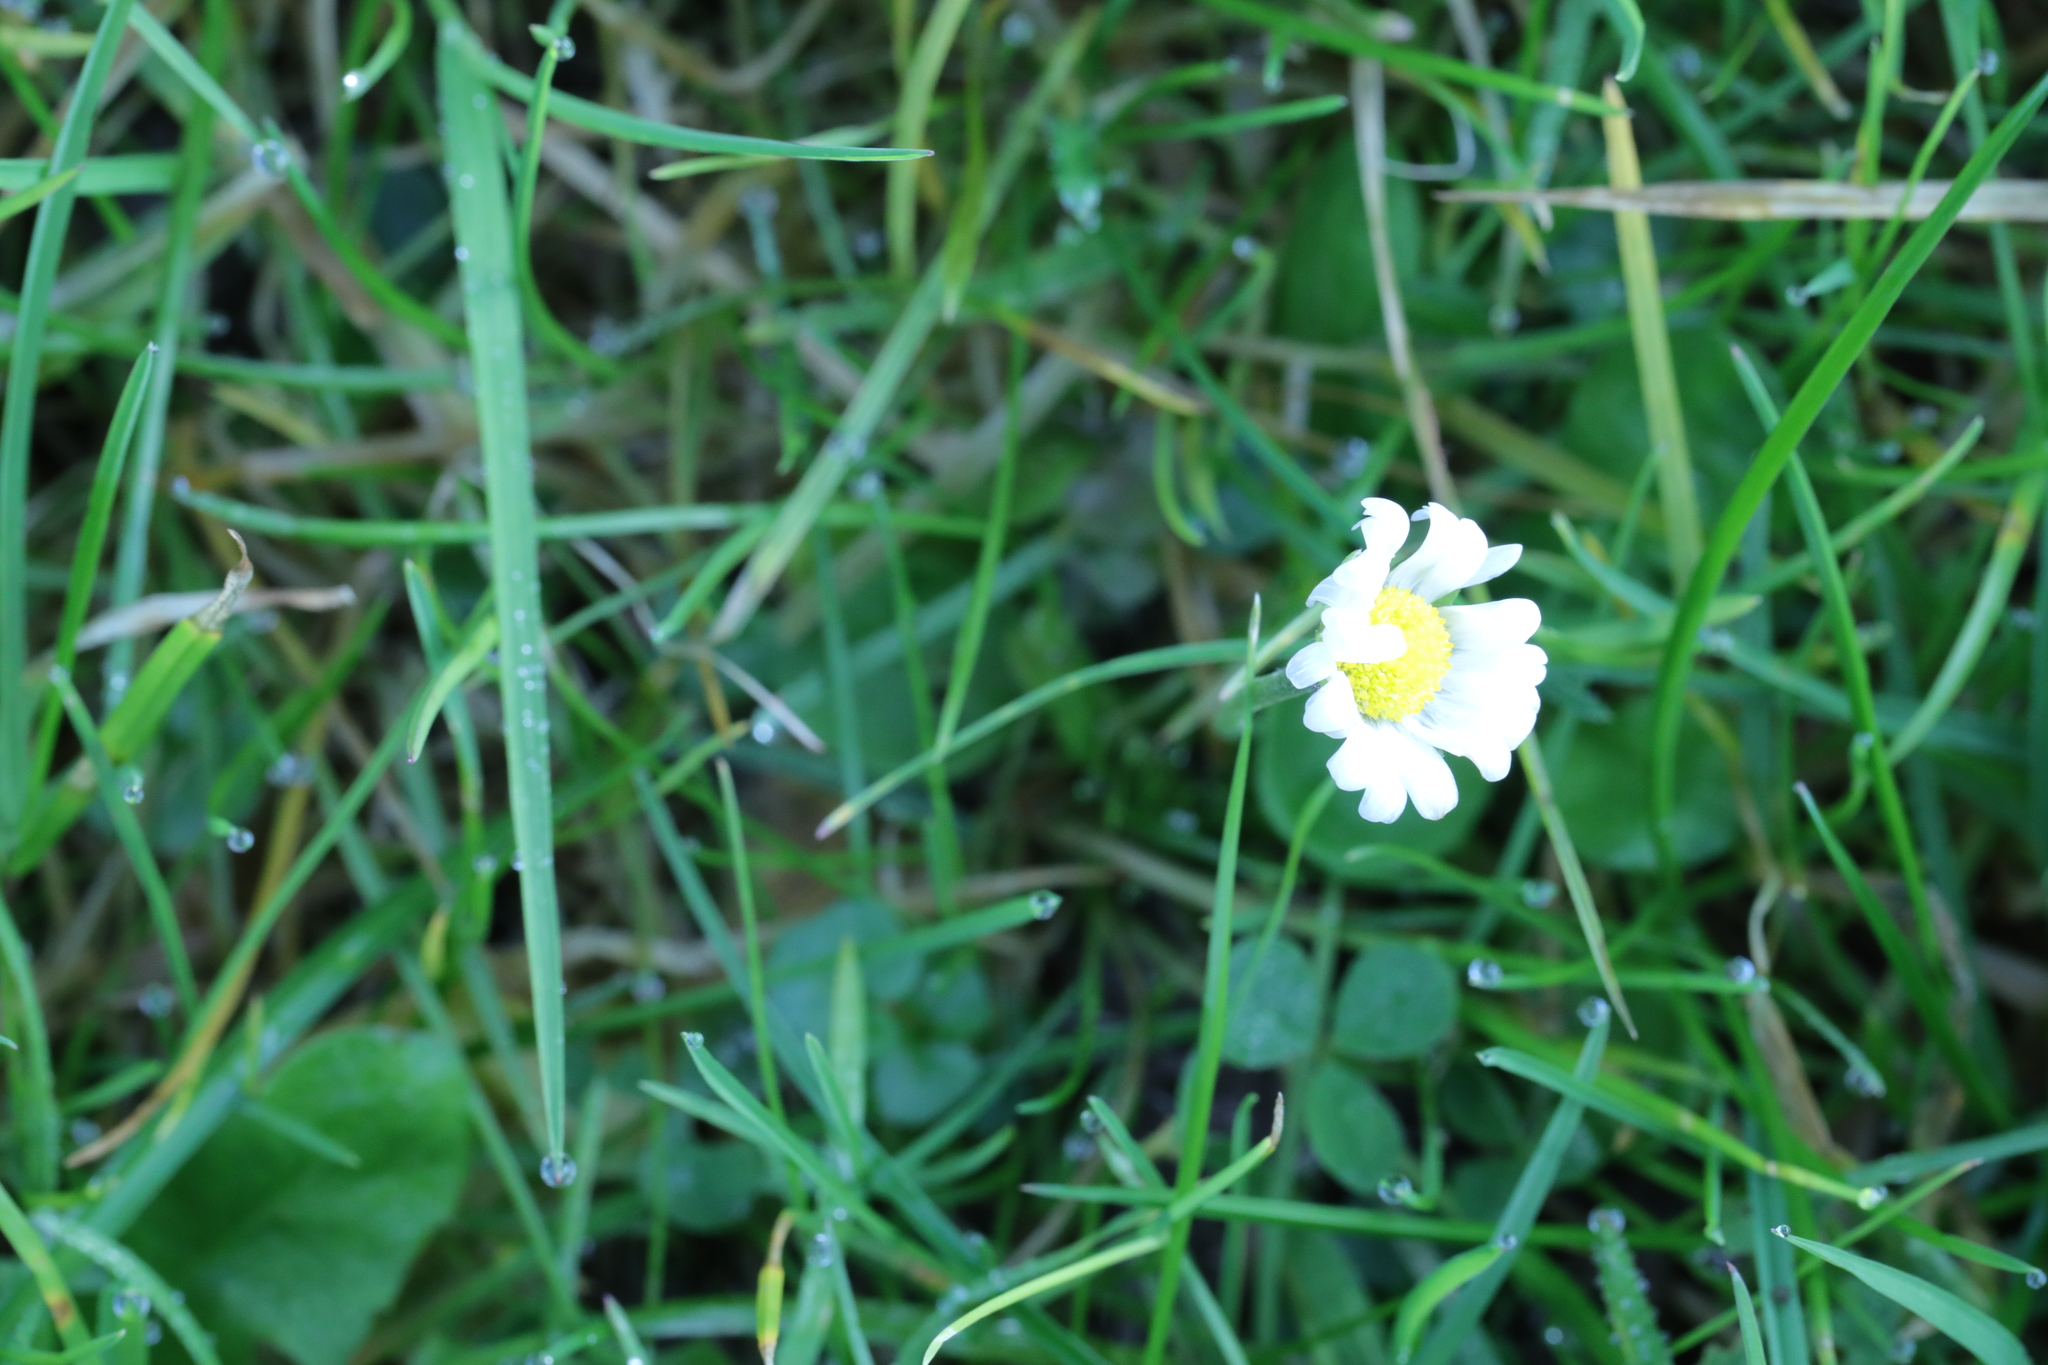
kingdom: Plantae
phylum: Tracheophyta
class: Magnoliopsida
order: Asterales
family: Asteraceae
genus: Bellis
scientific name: Bellis perennis
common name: Lawndaisy
